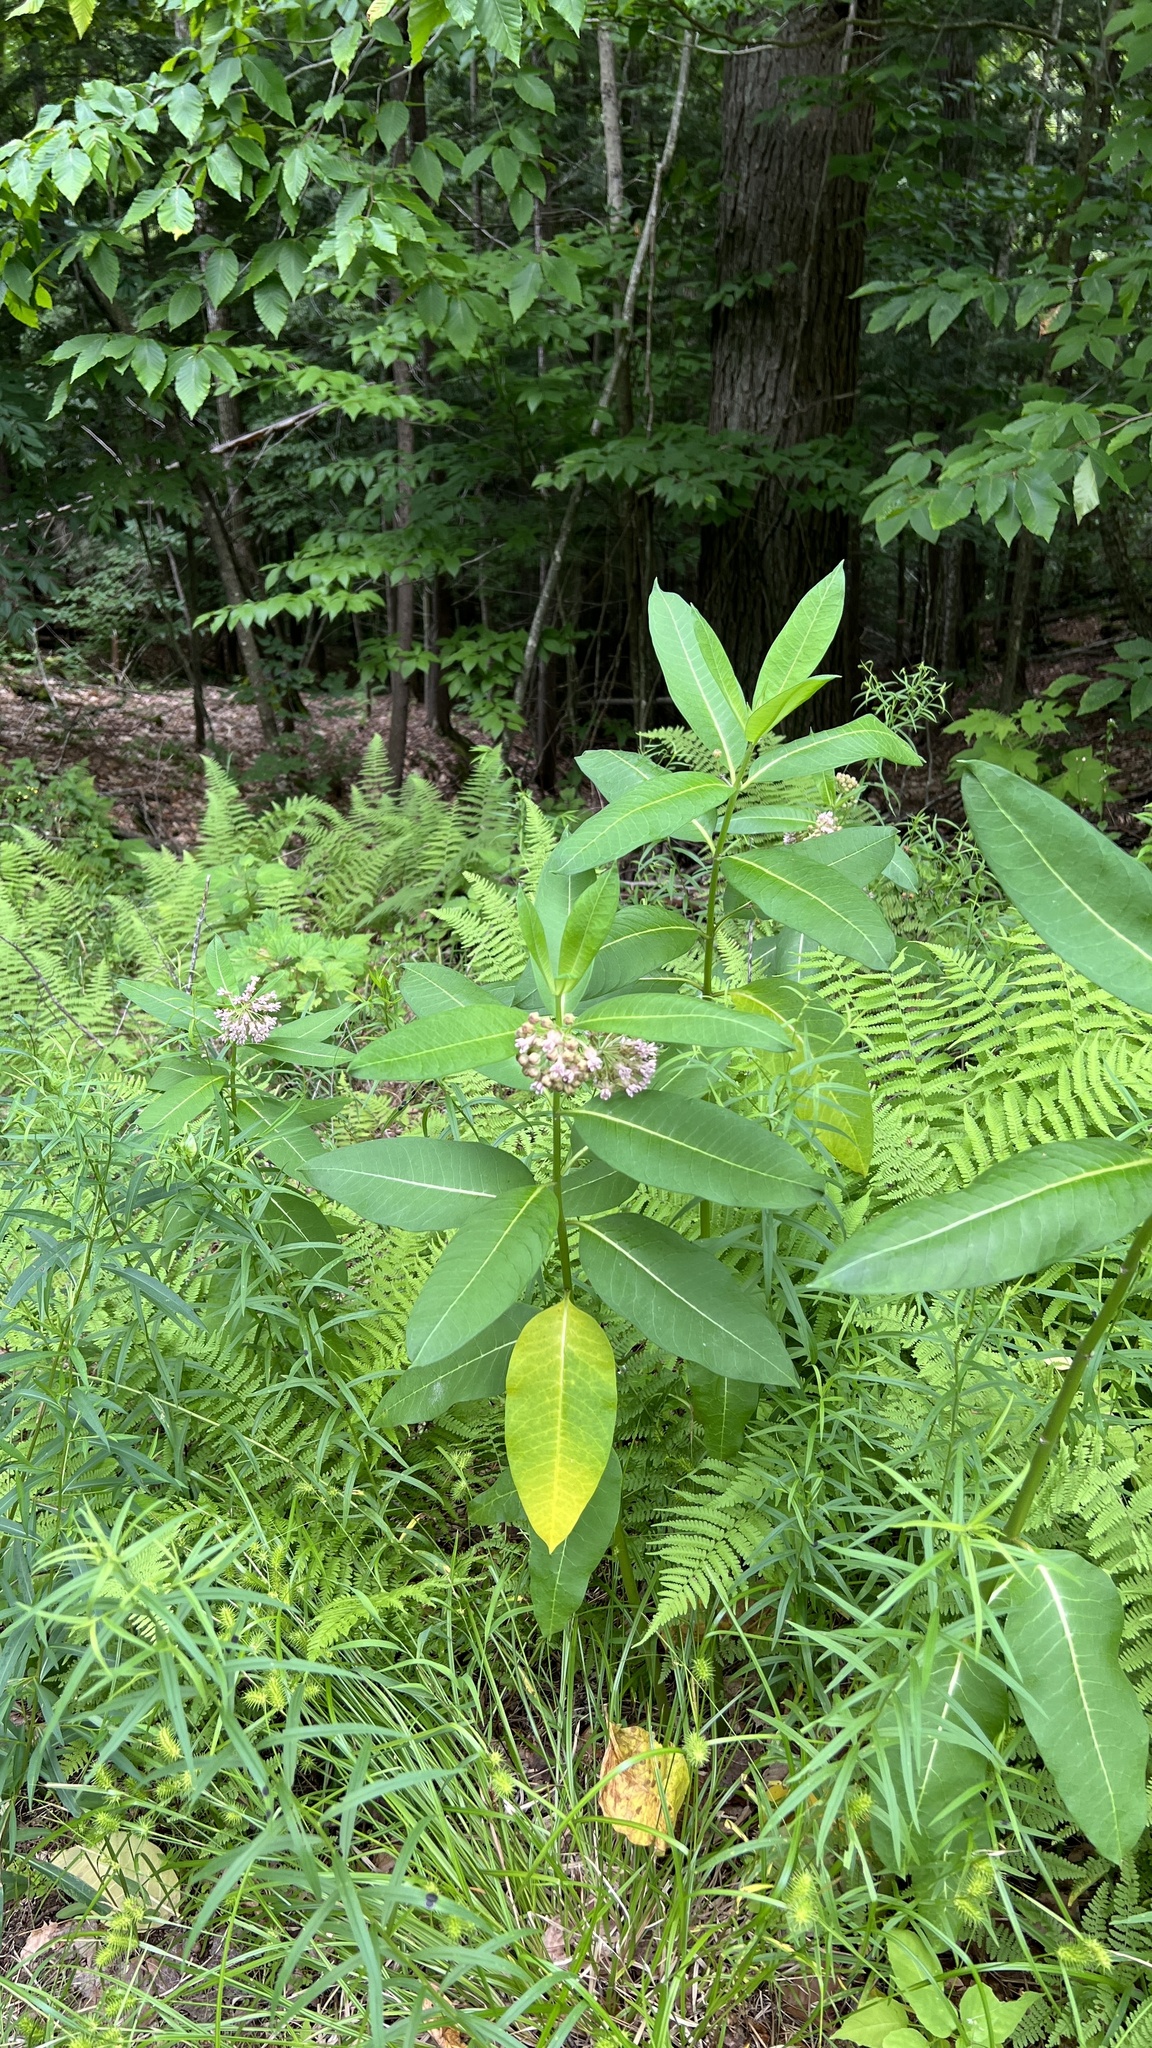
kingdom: Plantae
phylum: Tracheophyta
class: Magnoliopsida
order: Gentianales
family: Apocynaceae
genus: Asclepias
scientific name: Asclepias syriaca
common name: Common milkweed
